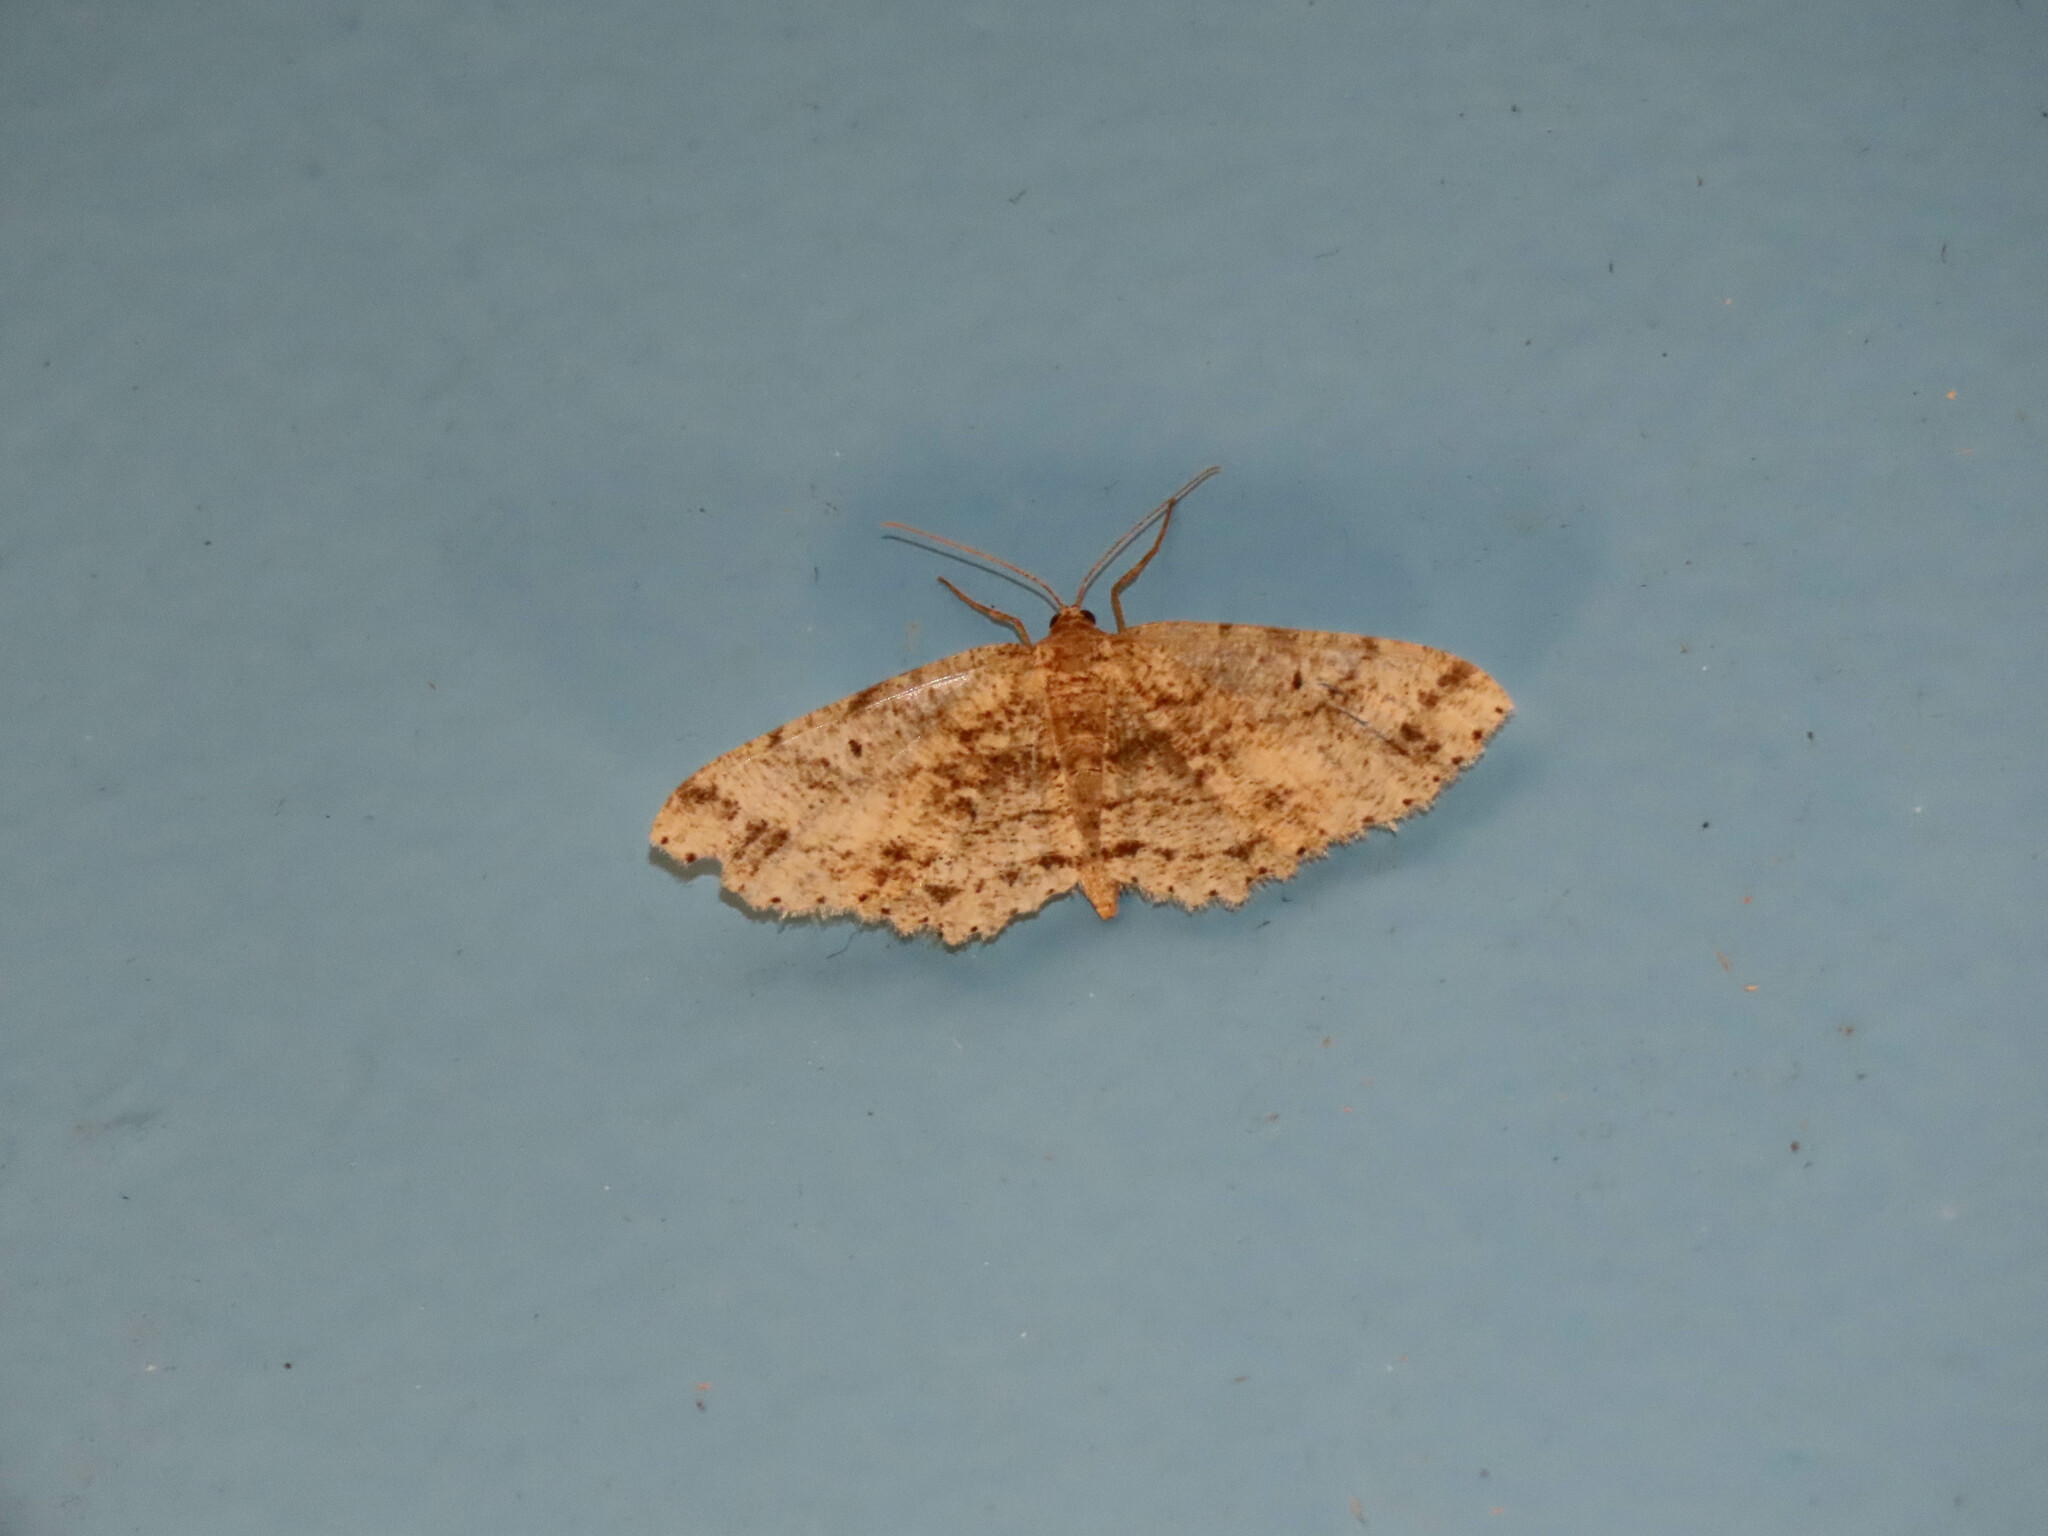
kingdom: Animalia
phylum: Arthropoda
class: Insecta
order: Lepidoptera
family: Geometridae
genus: Melanolophia
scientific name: Melanolophia canadaria
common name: Canadian melanolophia
